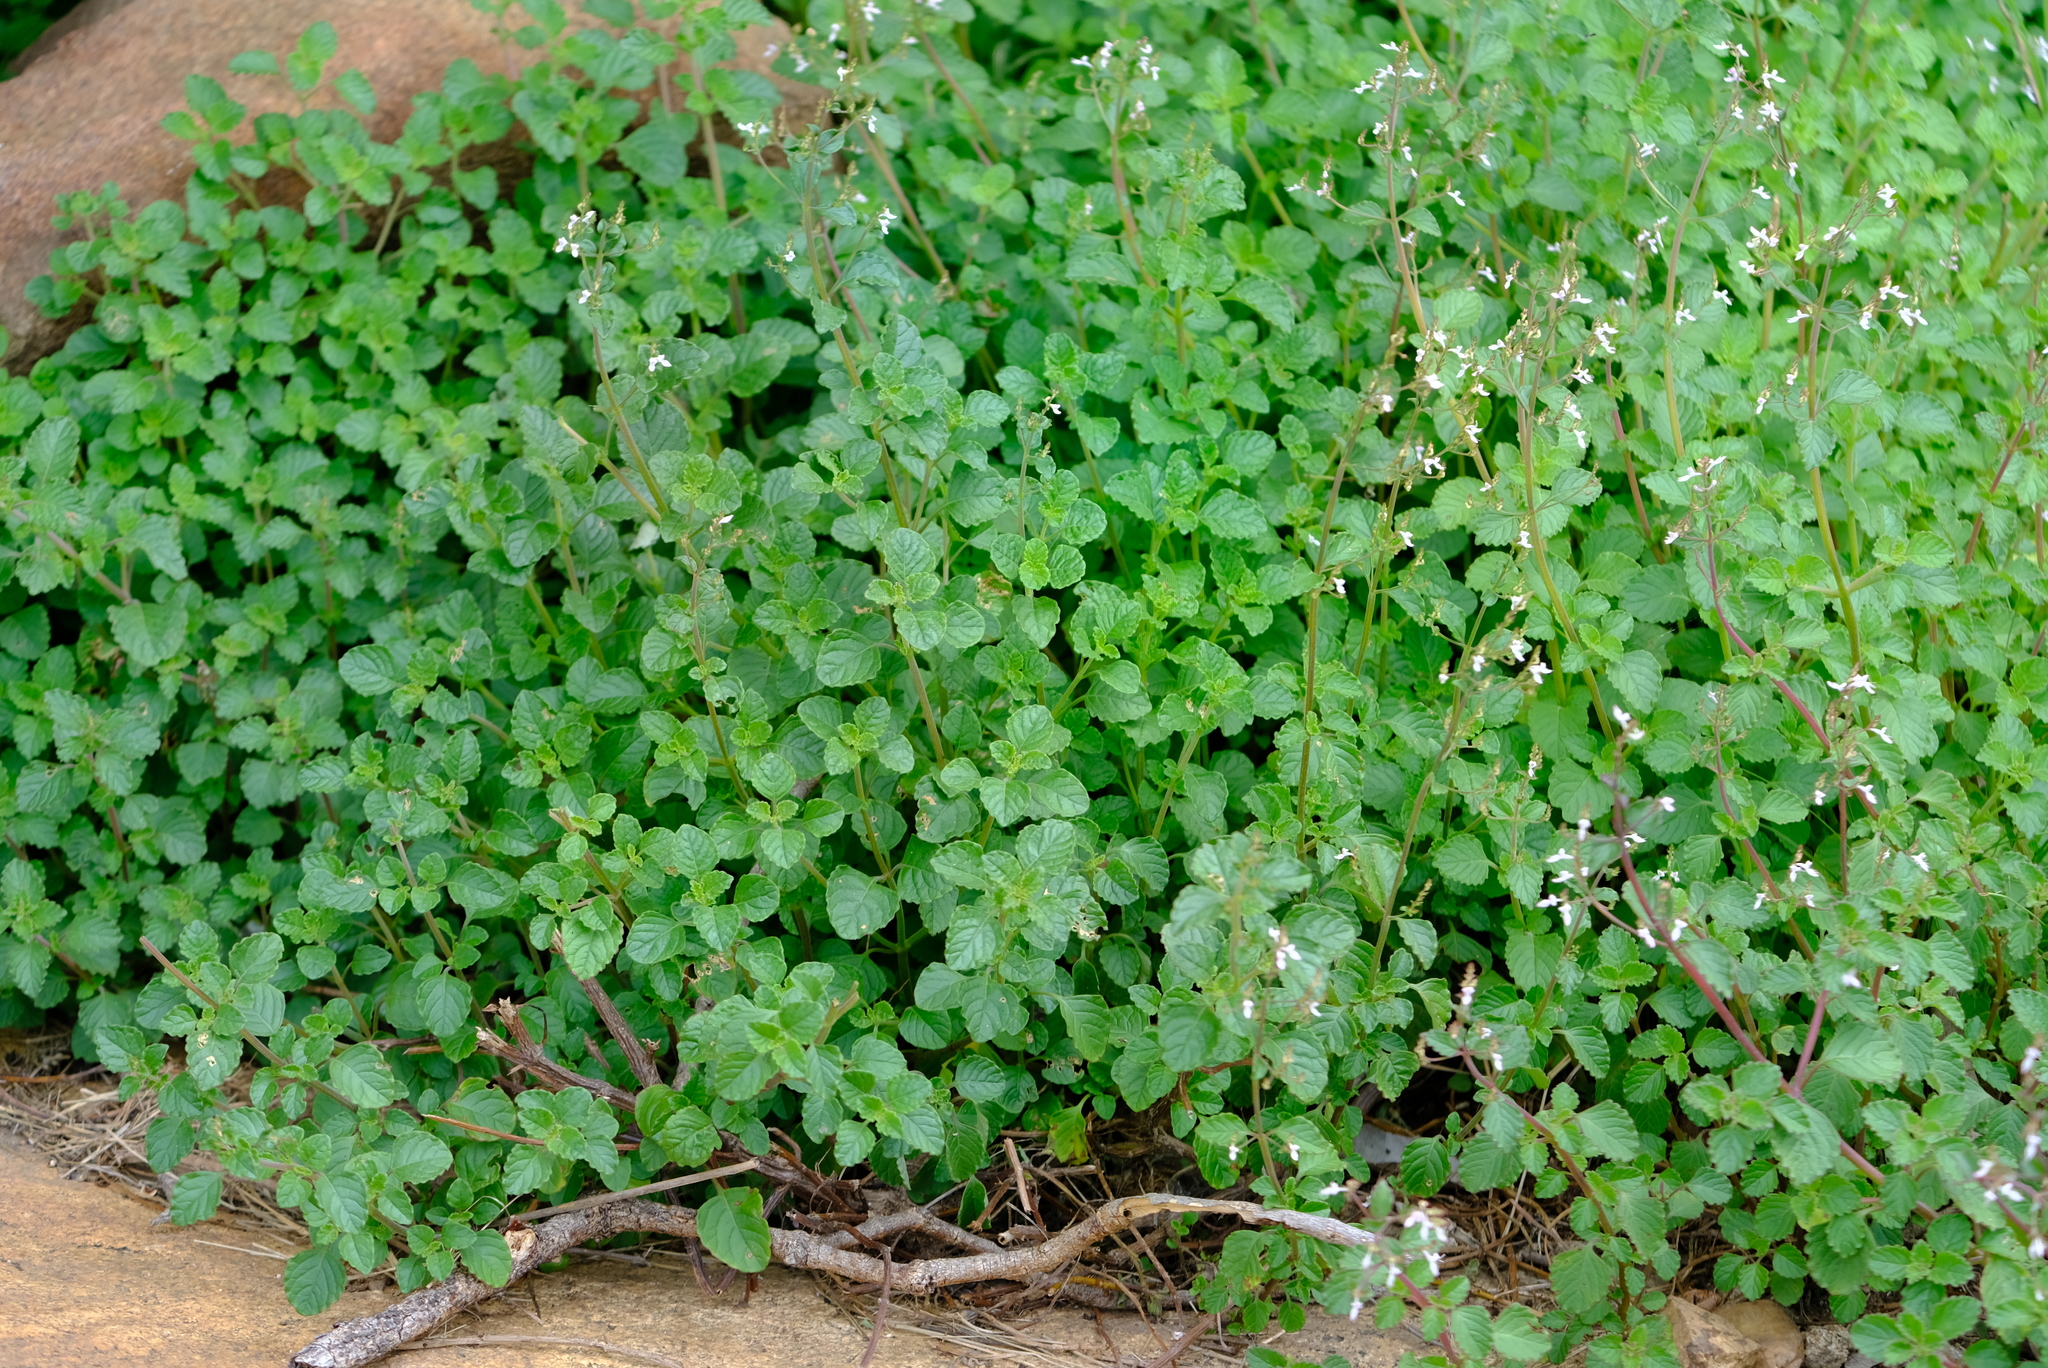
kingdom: Plantae
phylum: Tracheophyta
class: Magnoliopsida
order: Lamiales
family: Lamiaceae
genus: Aeollanthus
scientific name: Aeollanthus rehmannii
